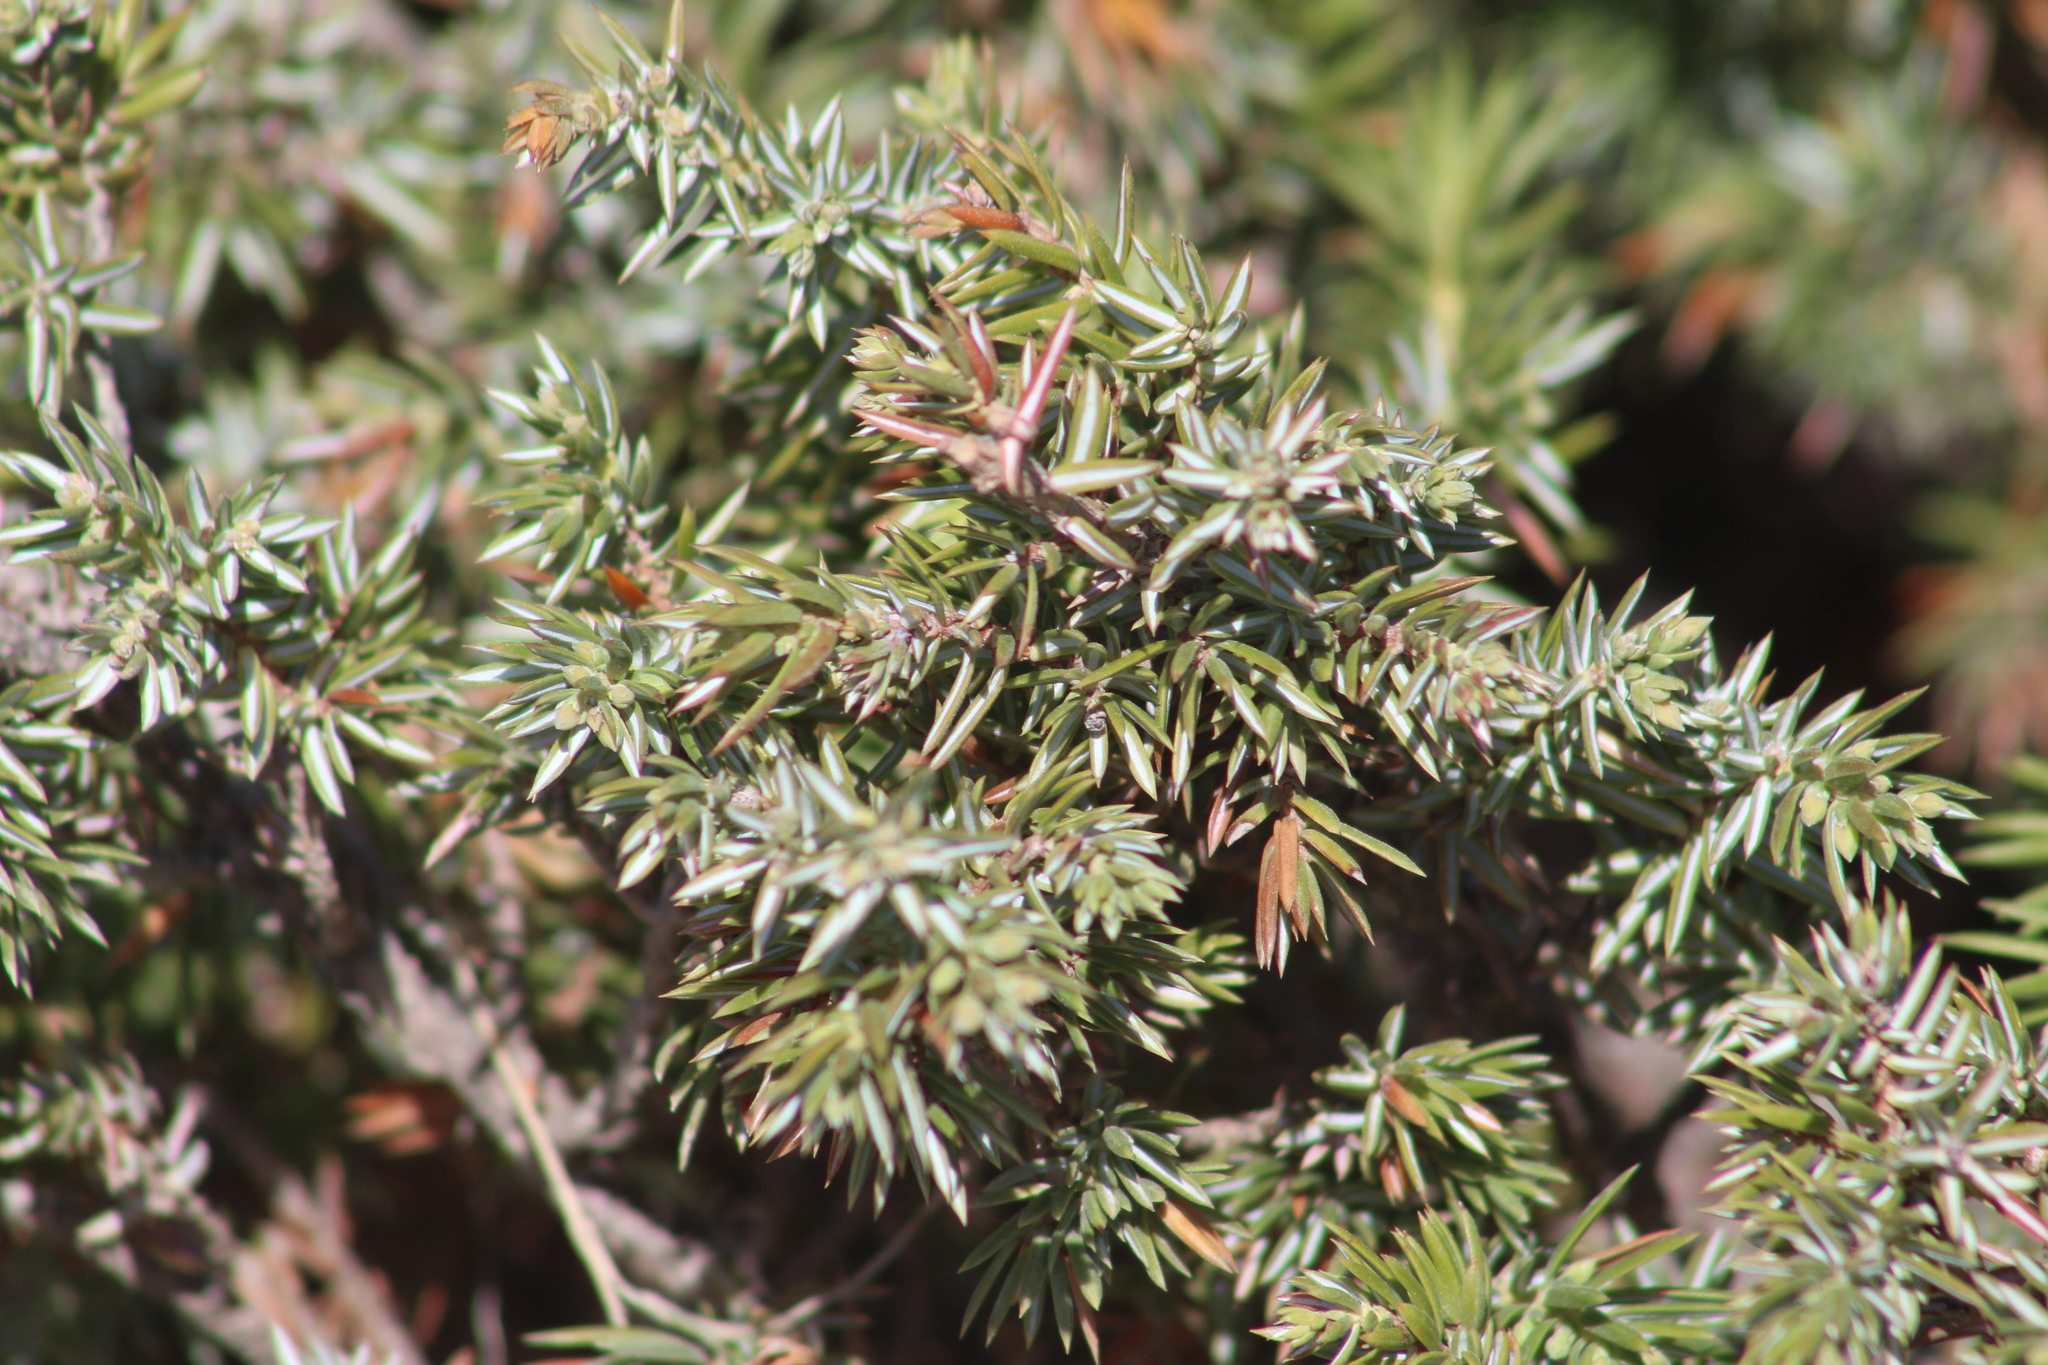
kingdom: Plantae
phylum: Tracheophyta
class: Pinopsida
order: Pinales
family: Cupressaceae
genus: Juniperus
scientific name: Juniperus communis
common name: Common juniper
